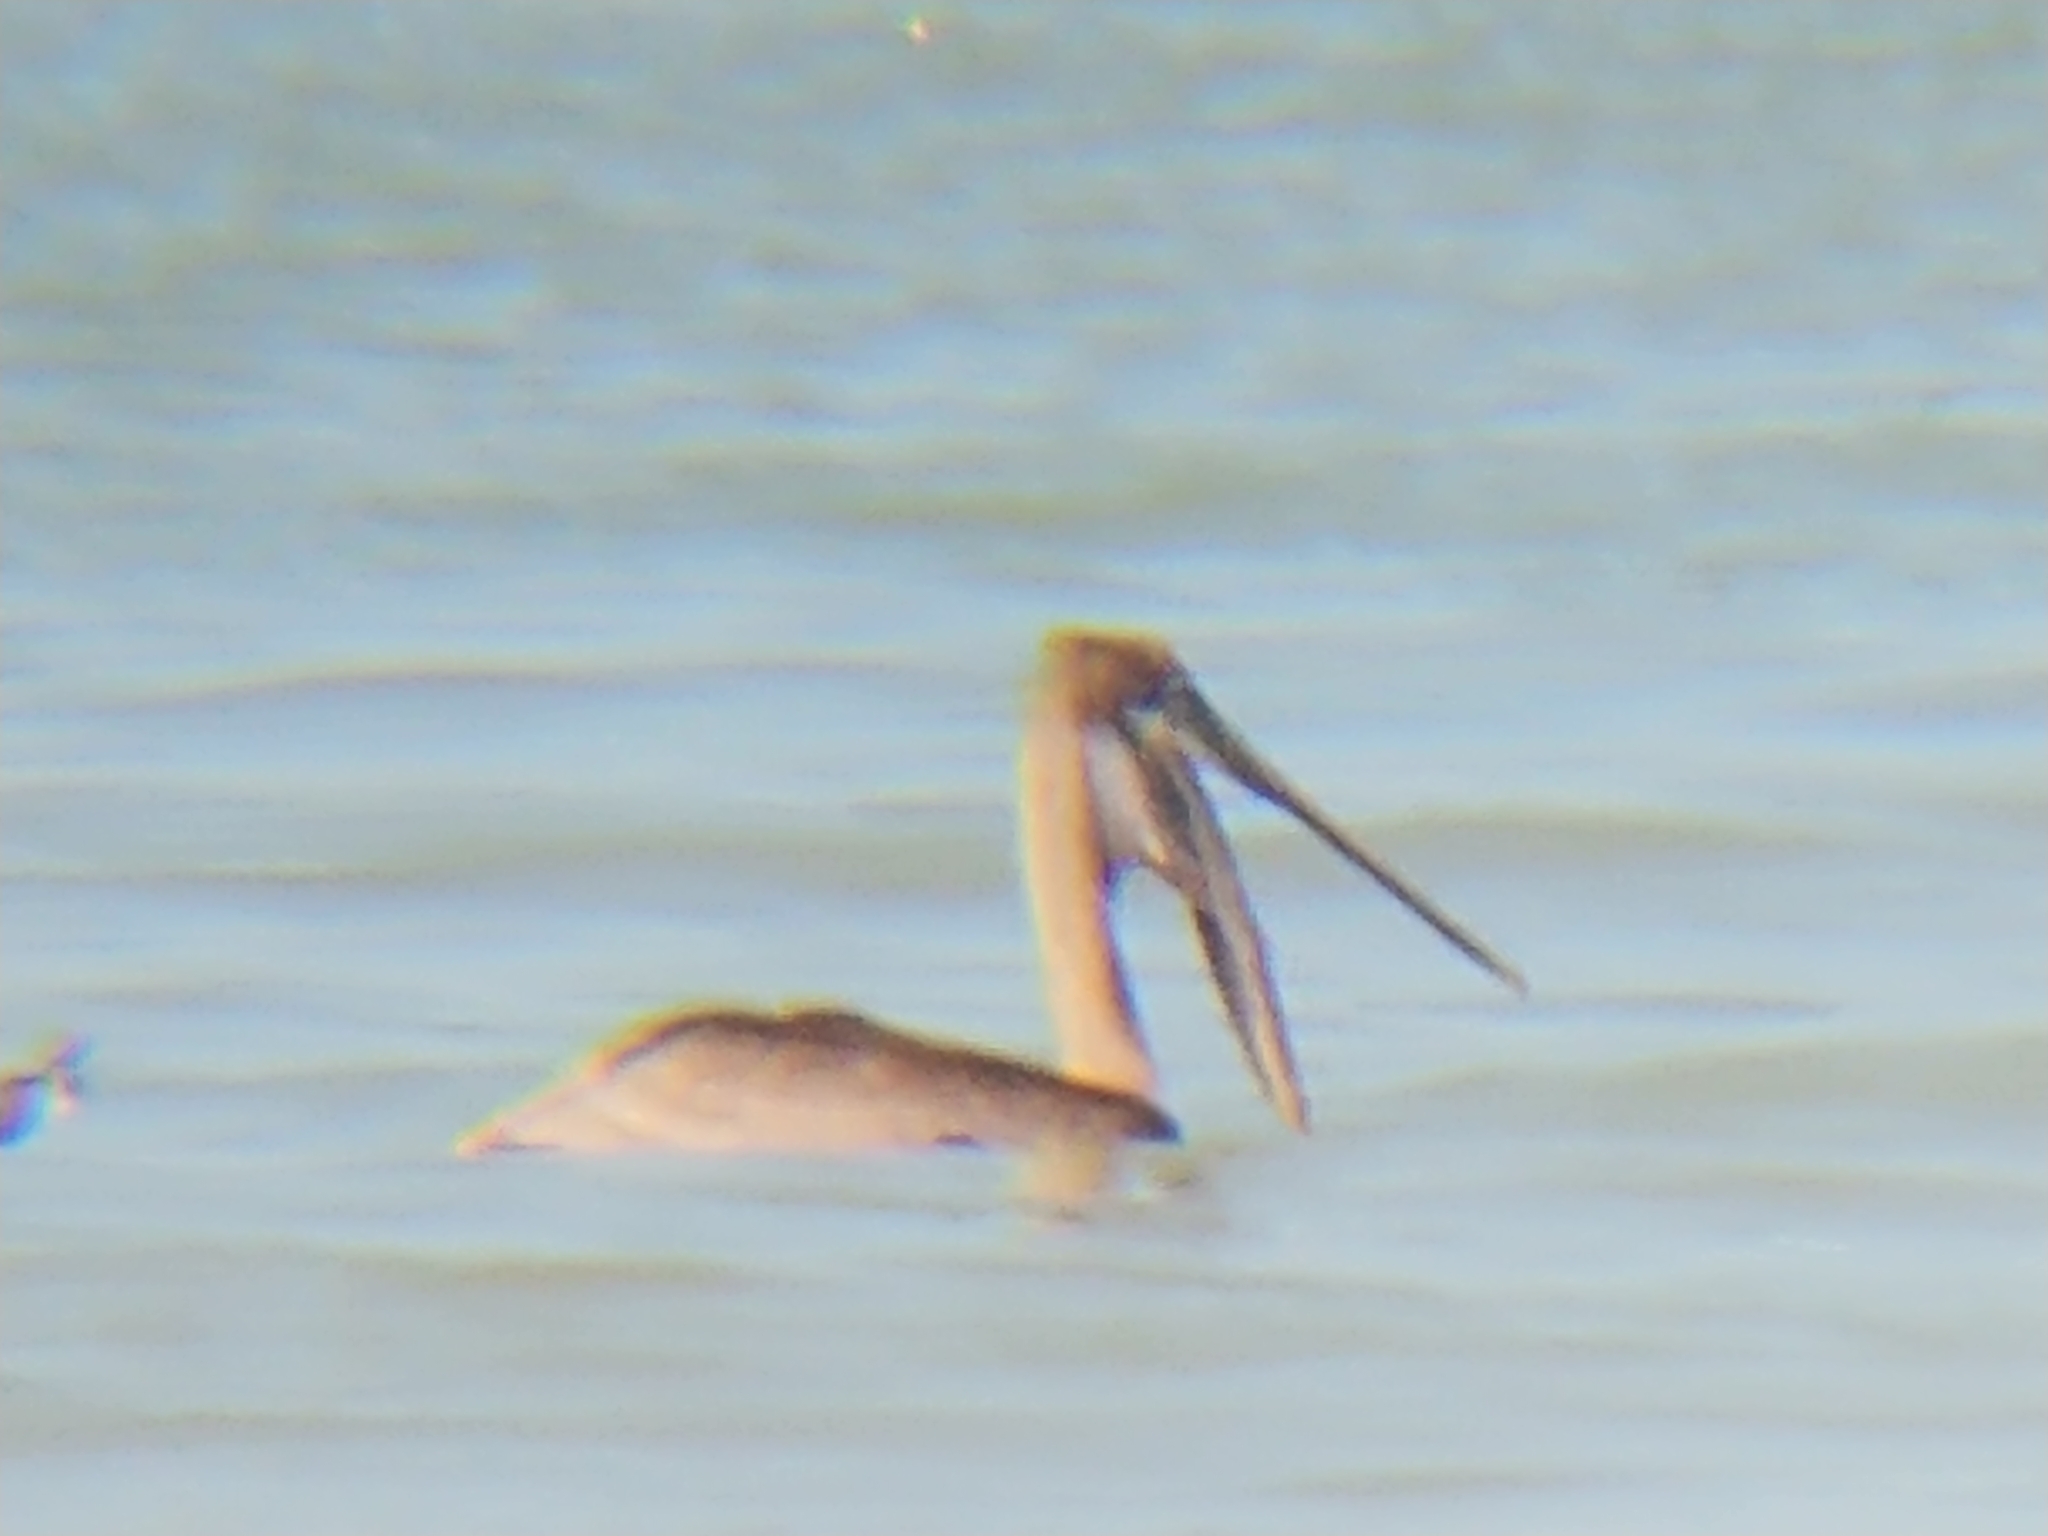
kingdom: Animalia
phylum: Chordata
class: Aves
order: Pelecaniformes
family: Pelecanidae
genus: Pelecanus
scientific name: Pelecanus occidentalis
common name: Brown pelican
